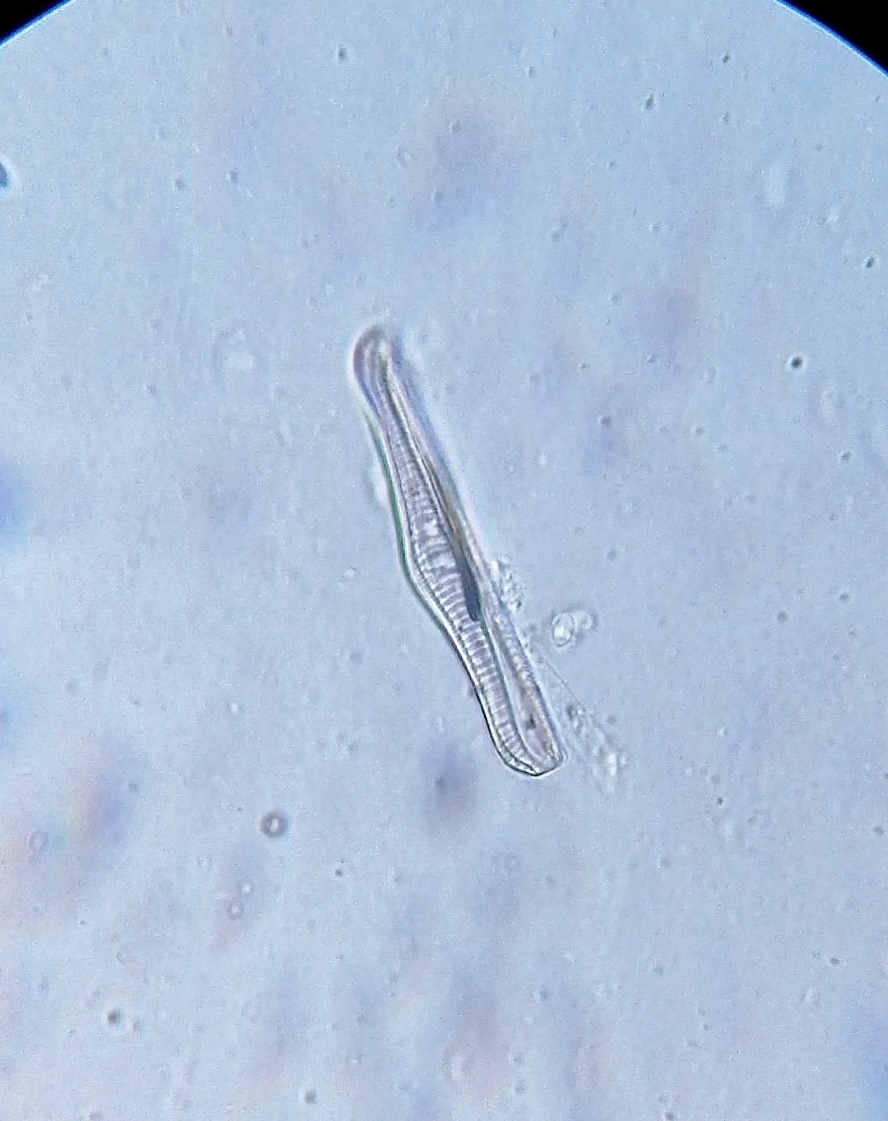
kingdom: Chromista
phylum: Ochrophyta
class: Bacillariophyceae
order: Rhopalodiales
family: Rhopalodiaceae
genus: Epithemia
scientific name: Epithemia gibba
